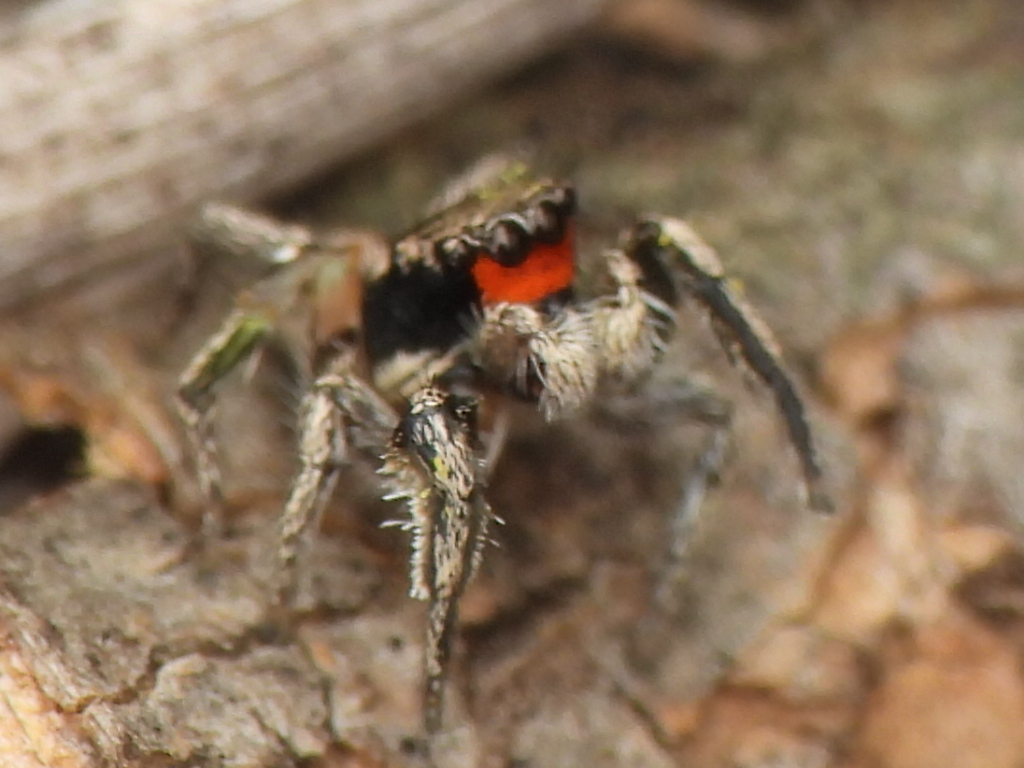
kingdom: Animalia
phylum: Arthropoda
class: Arachnida
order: Araneae
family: Salticidae
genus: Habronattus
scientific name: Habronattus coecatus
